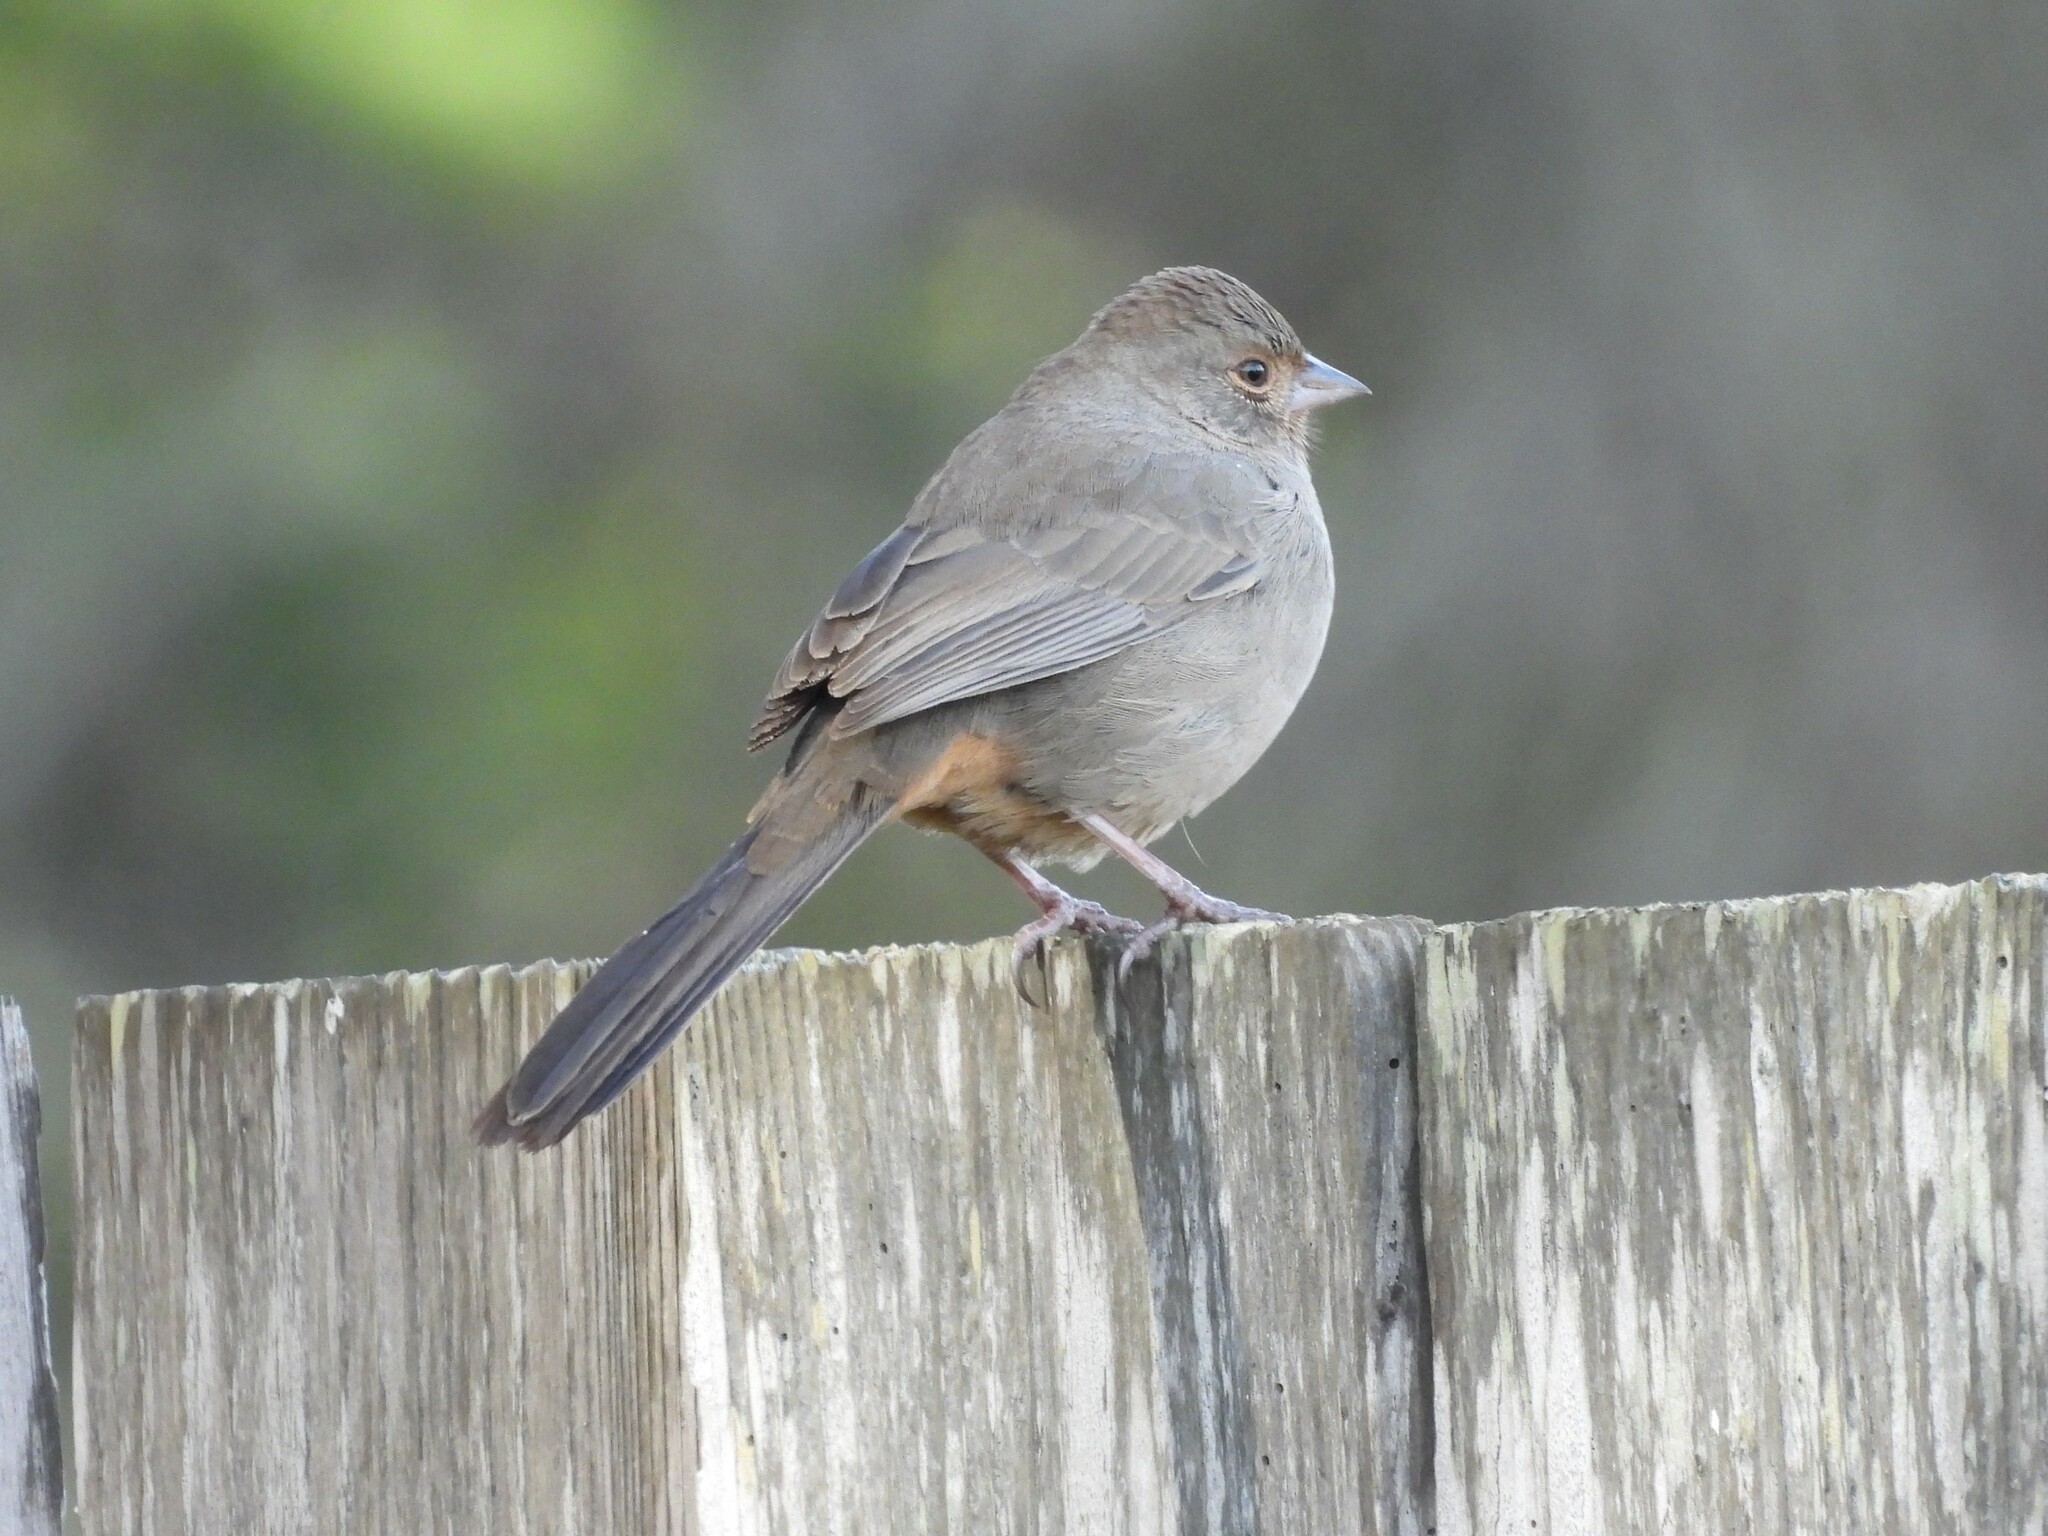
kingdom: Animalia
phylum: Chordata
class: Aves
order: Passeriformes
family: Passerellidae
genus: Melozone
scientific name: Melozone crissalis
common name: California towhee
